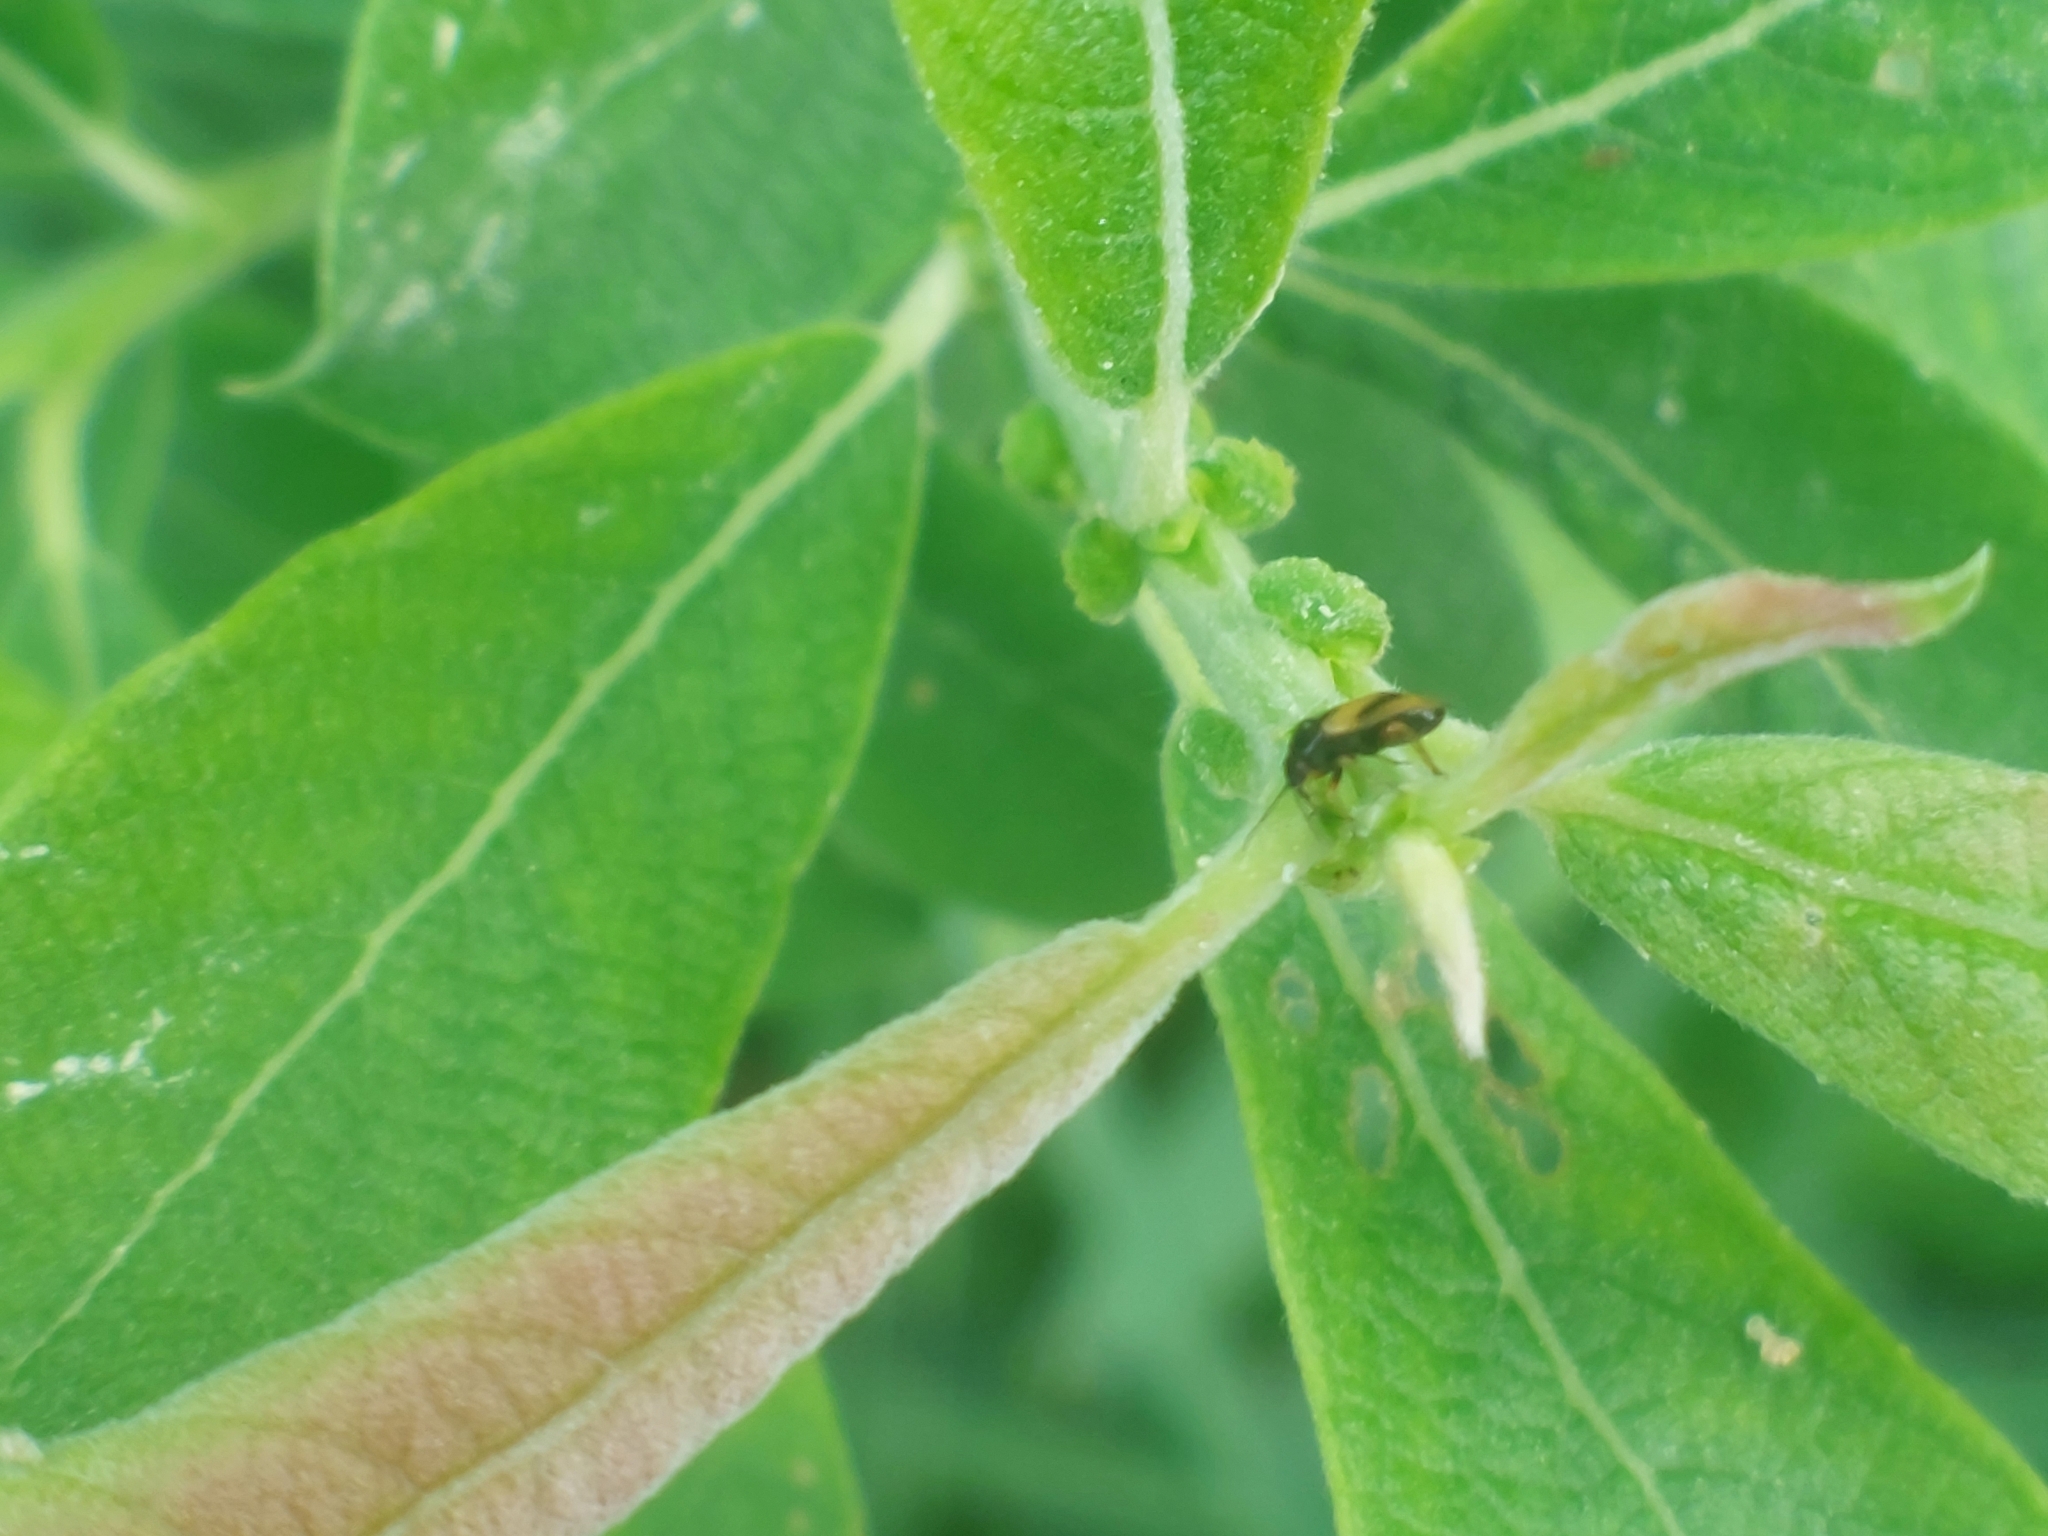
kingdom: Animalia
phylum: Arthropoda
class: Insecta
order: Hemiptera
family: Miridae
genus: Salicarus
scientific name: Salicarus roseri
